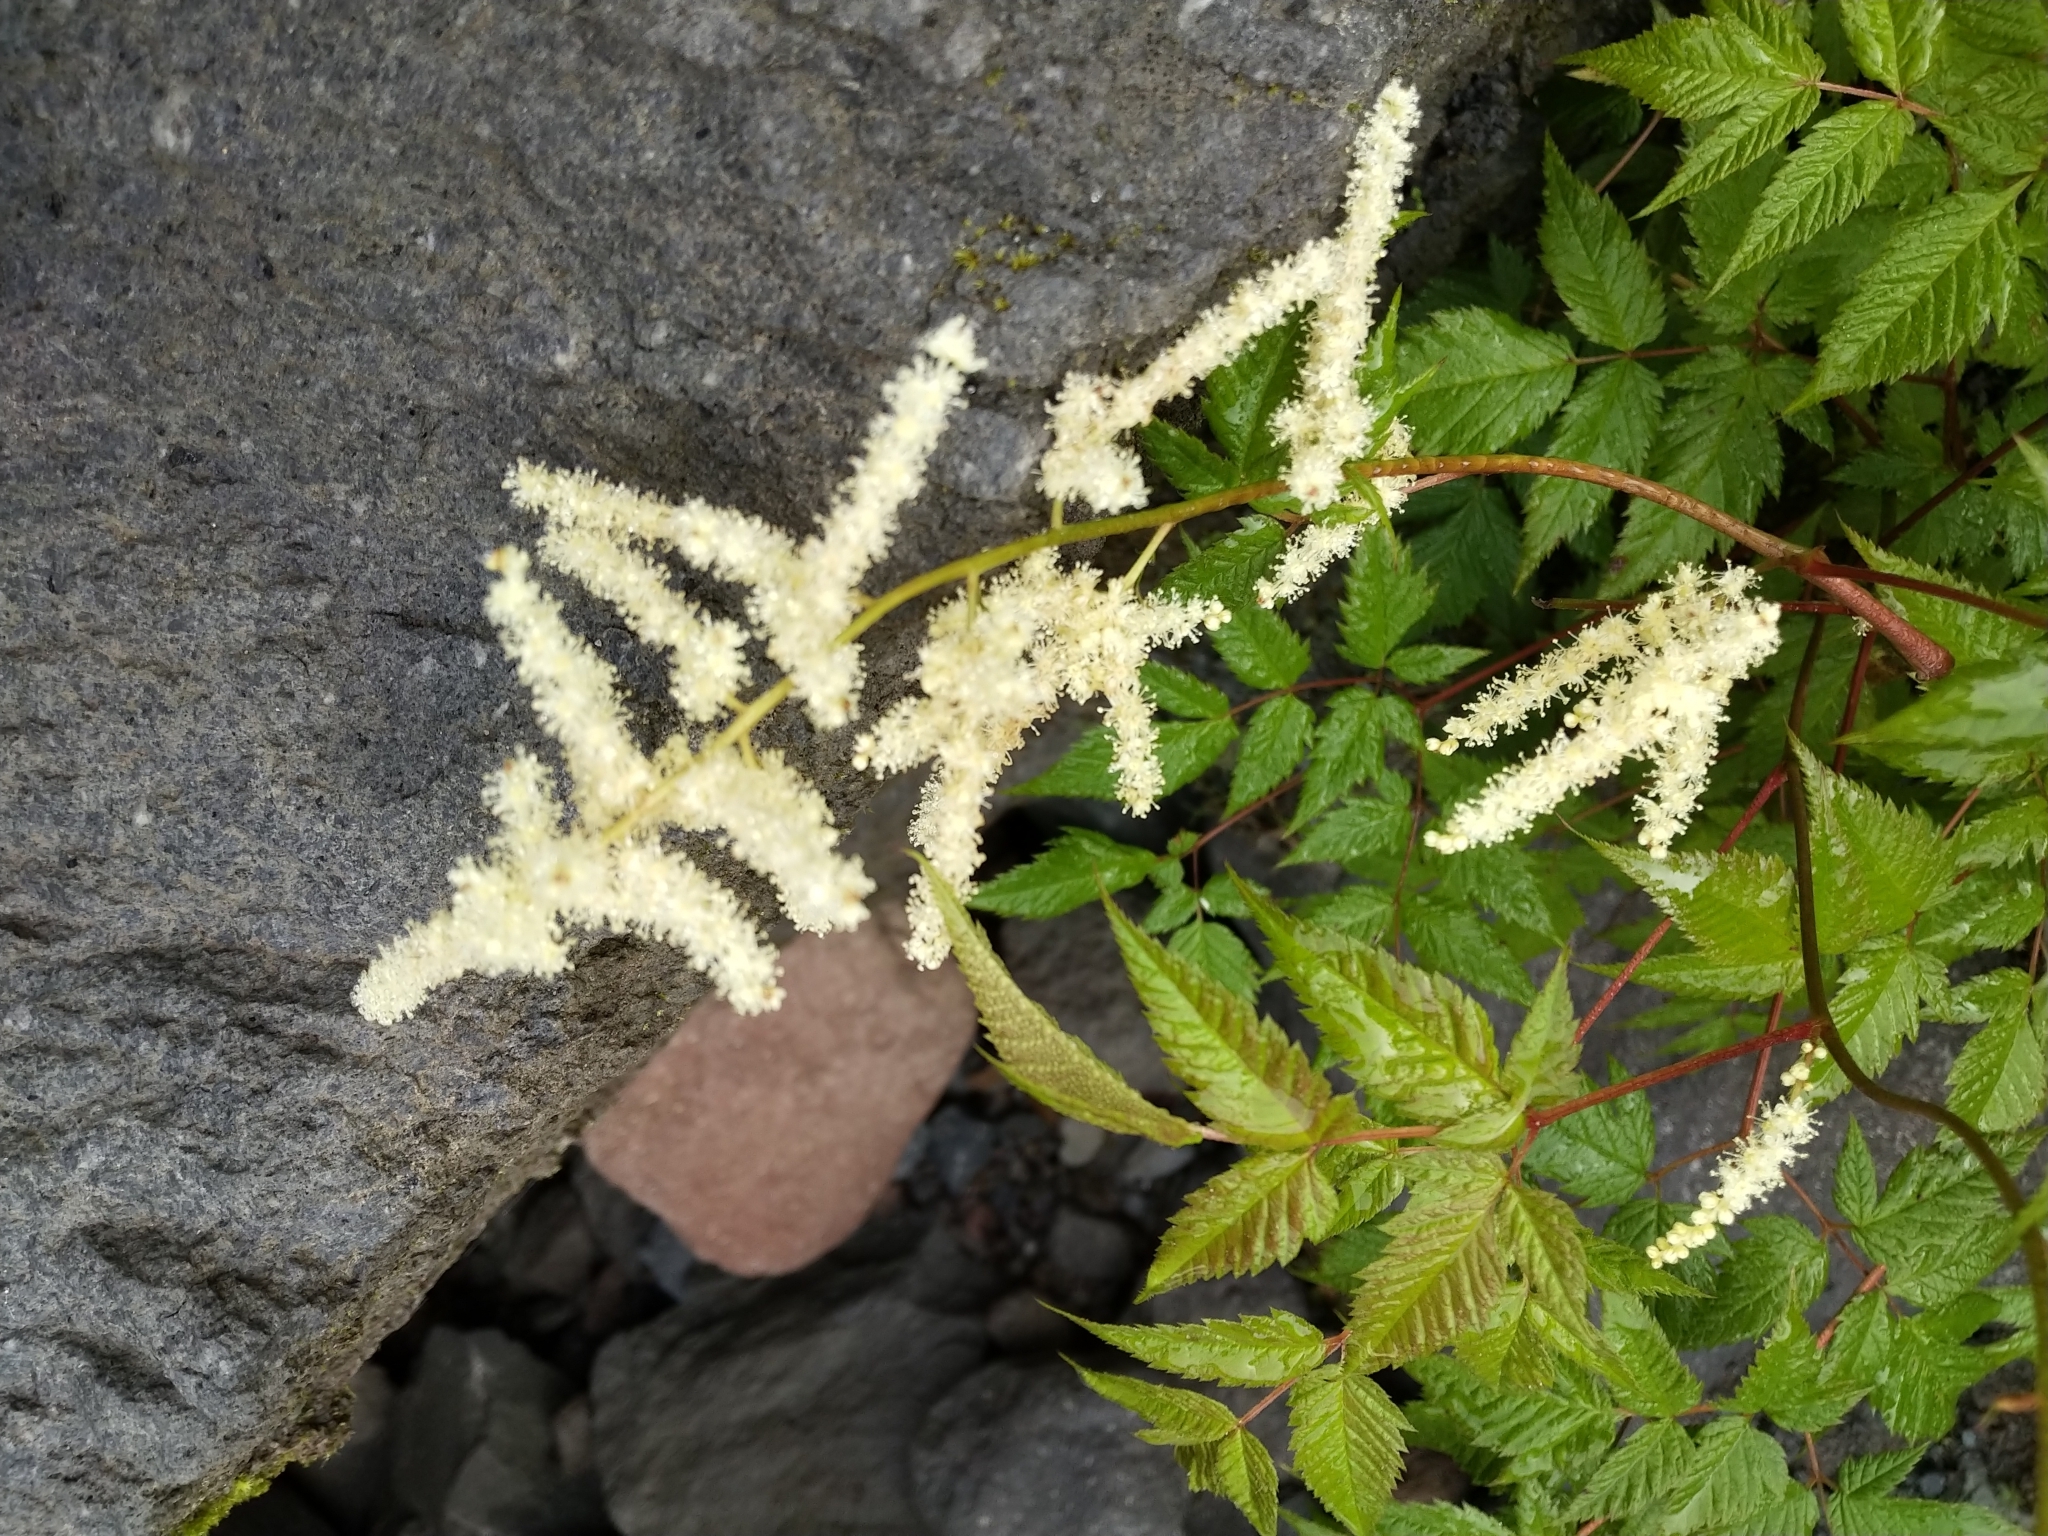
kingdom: Plantae
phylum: Tracheophyta
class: Magnoliopsida
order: Rosales
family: Rosaceae
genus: Aruncus
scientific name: Aruncus dioicus
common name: Buck's-beard
